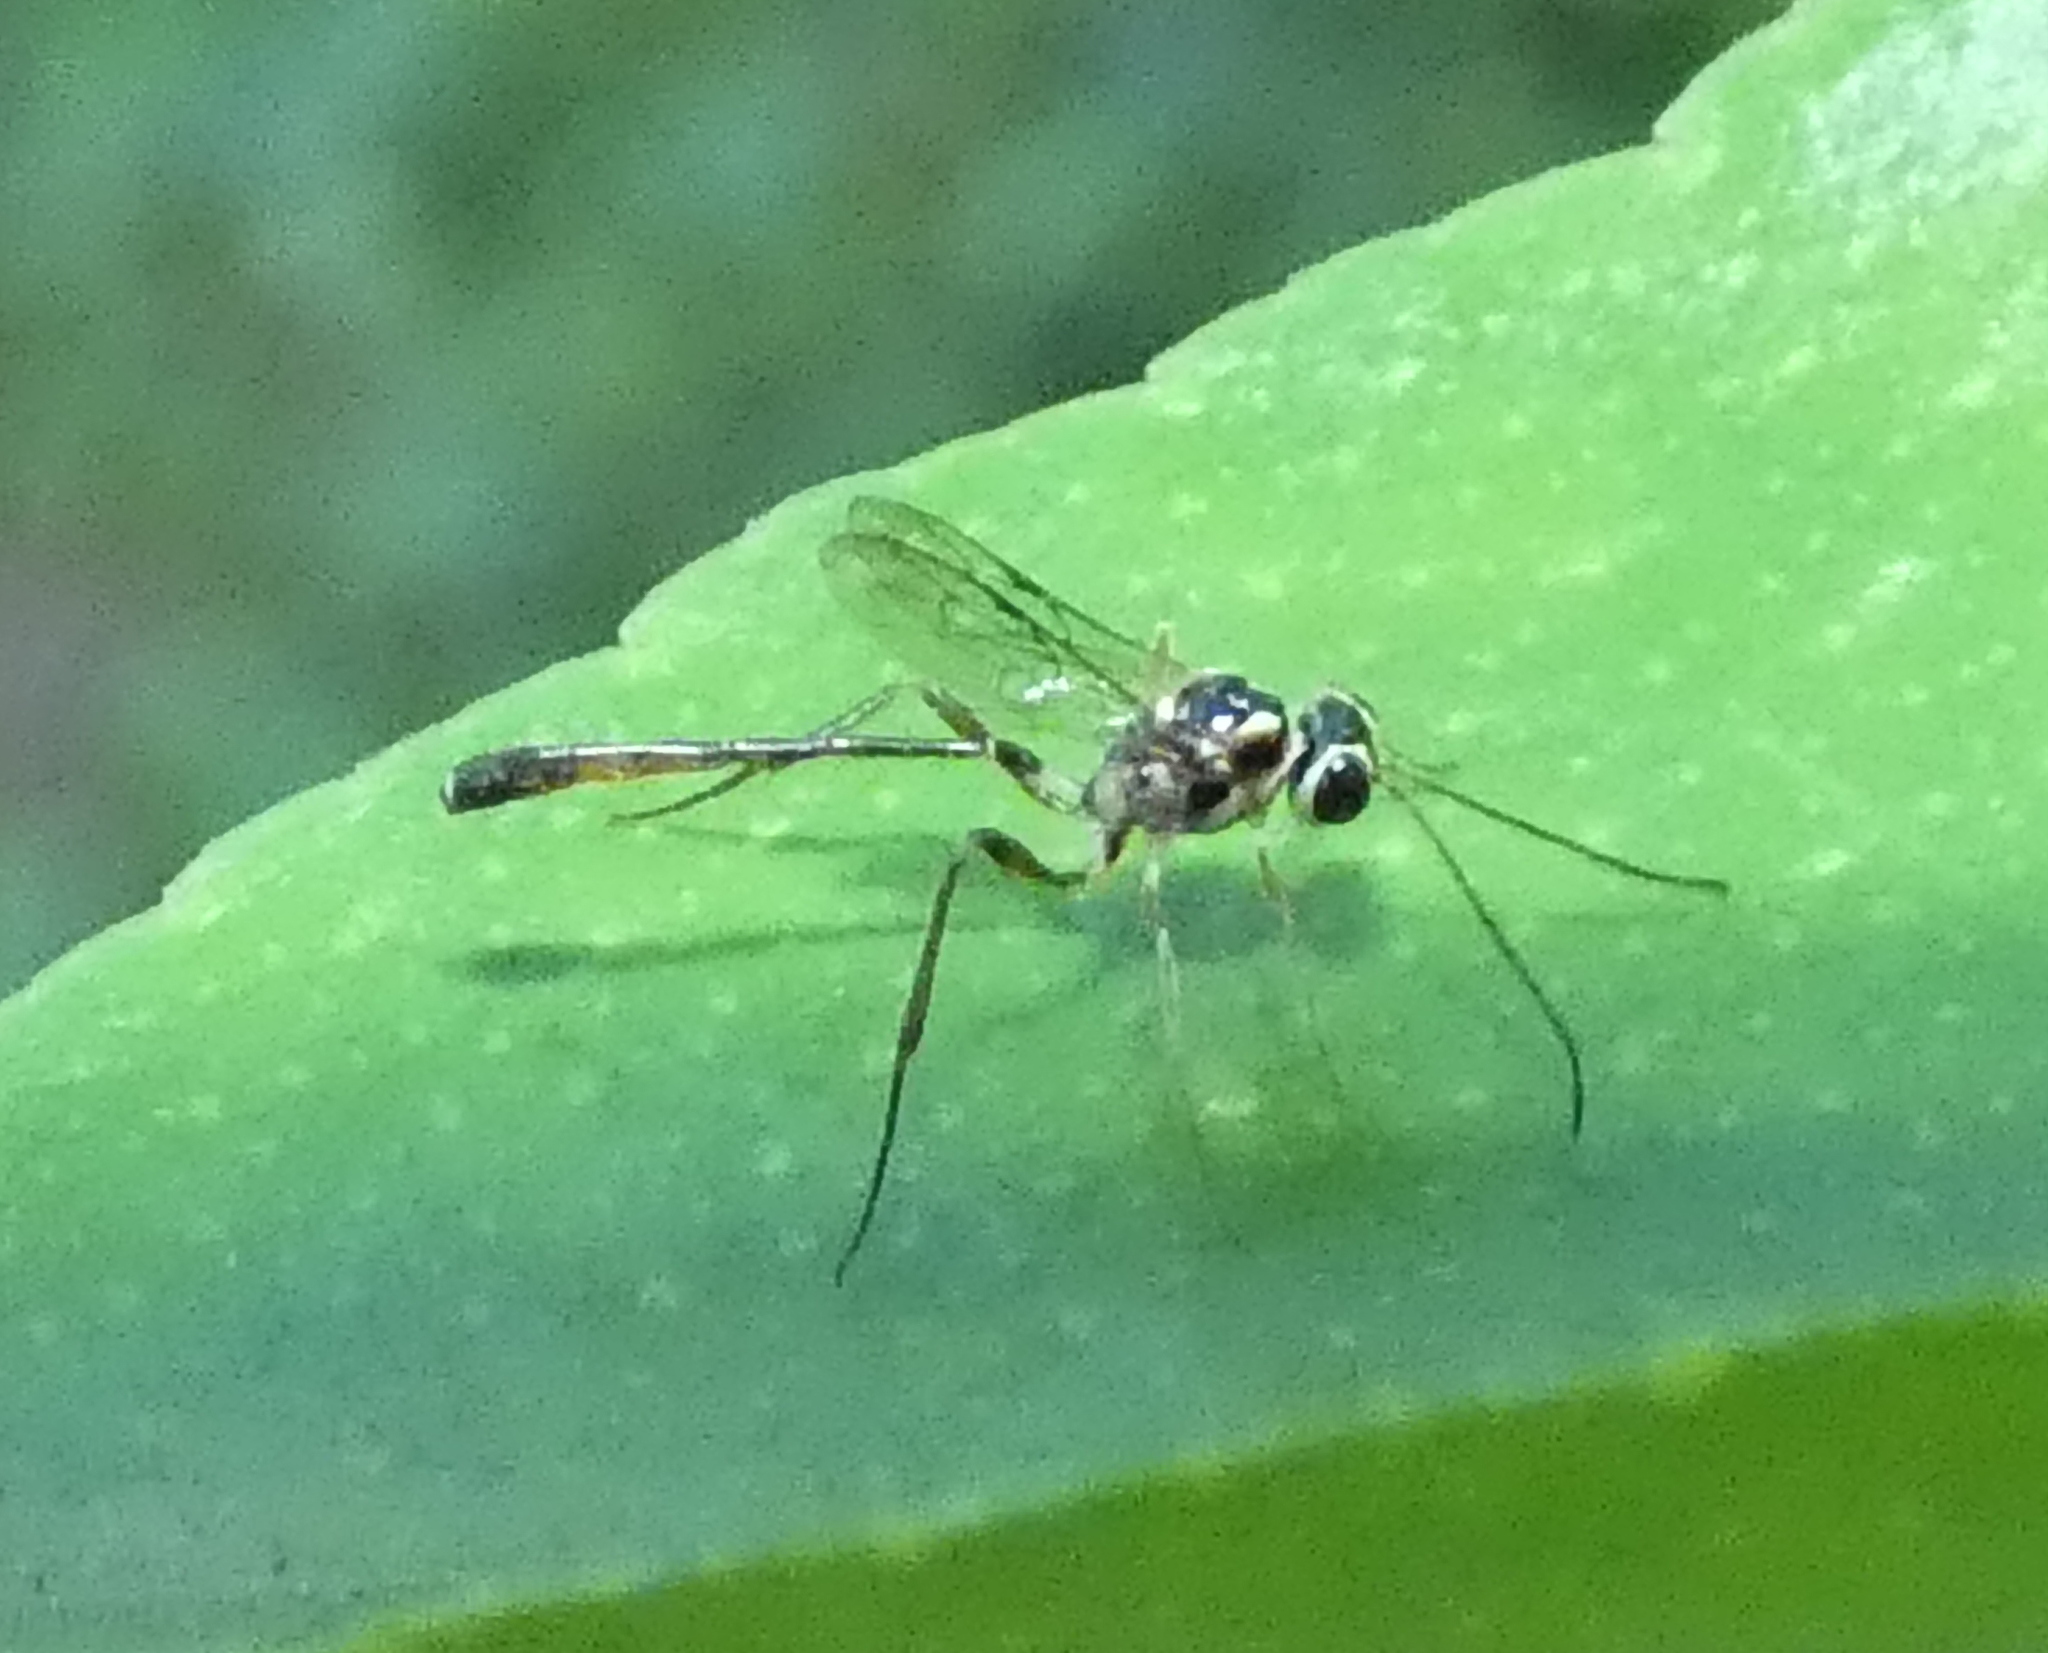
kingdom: Animalia
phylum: Arthropoda
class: Insecta
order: Hymenoptera
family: Ichneumonidae
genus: Anomalon
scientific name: Anomalon
